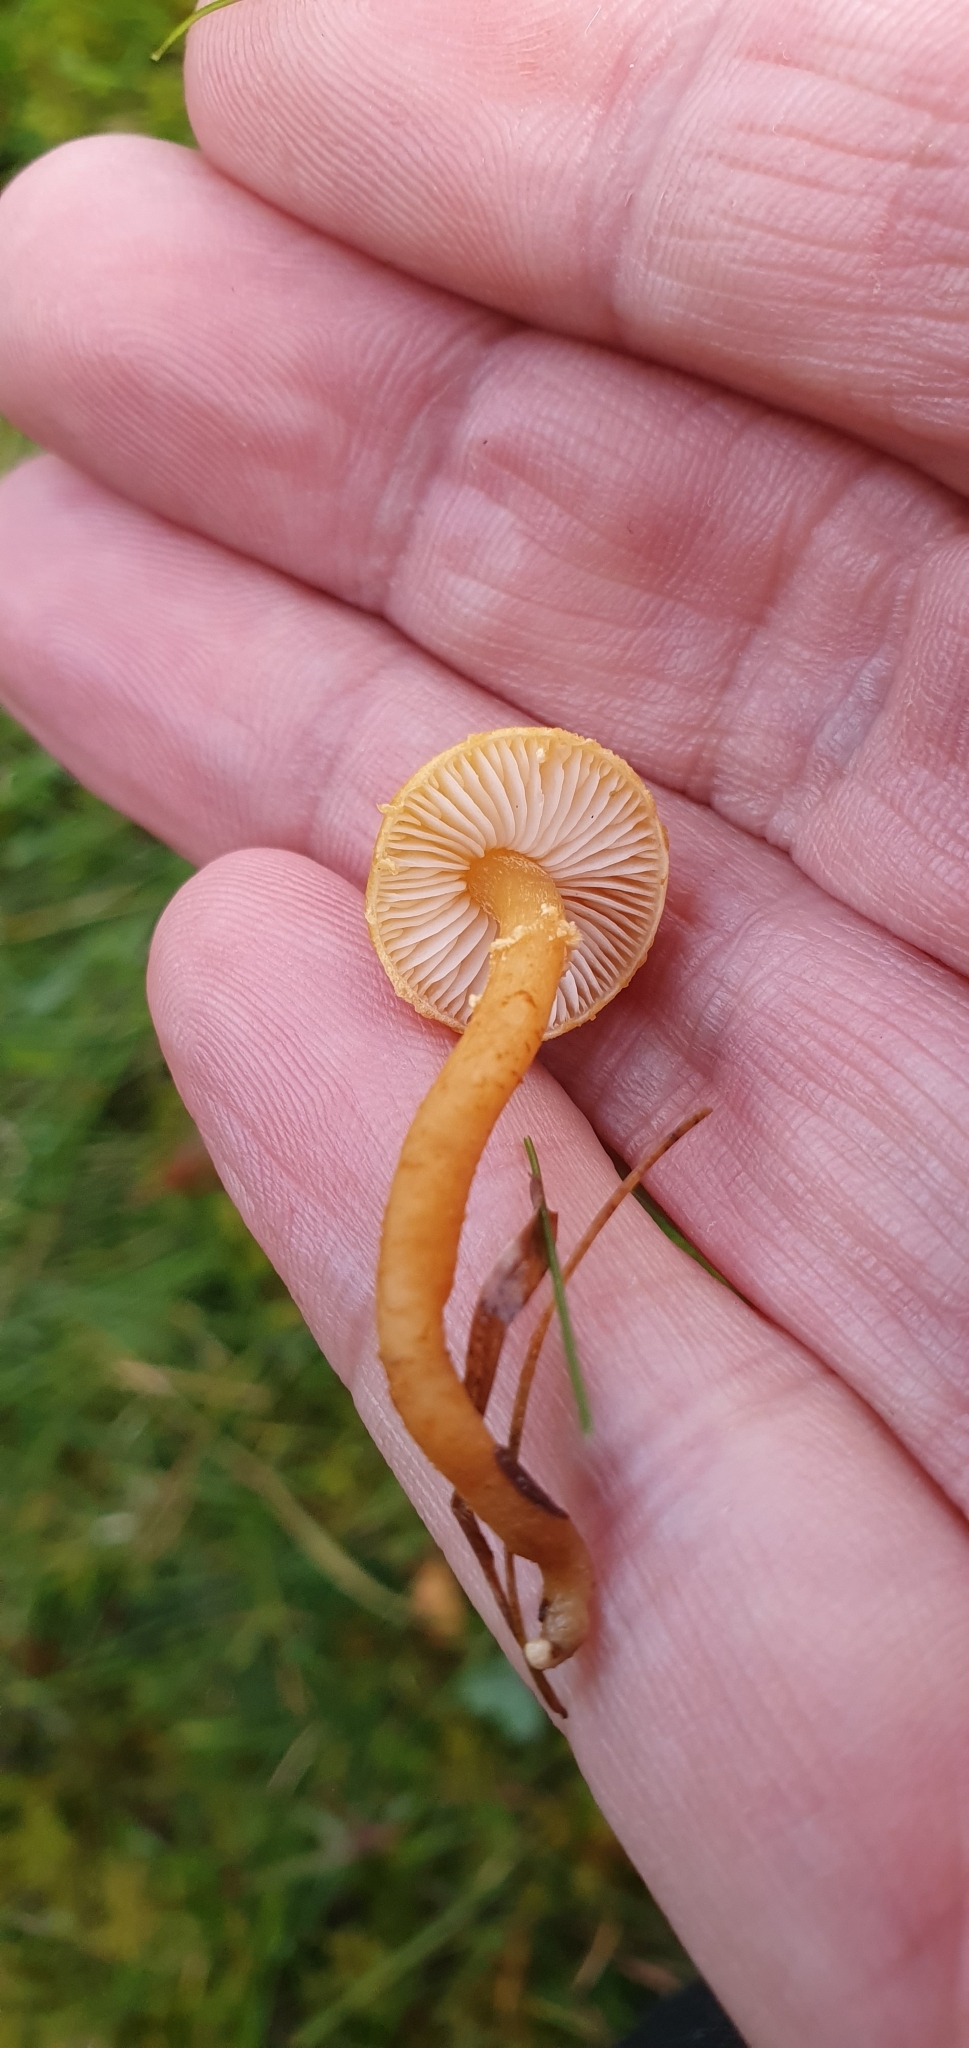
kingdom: Fungi
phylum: Basidiomycota
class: Agaricomycetes
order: Agaricales
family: Tricholomataceae
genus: Cystoderma
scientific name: Cystoderma amianthinum
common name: Earthy powdercap
